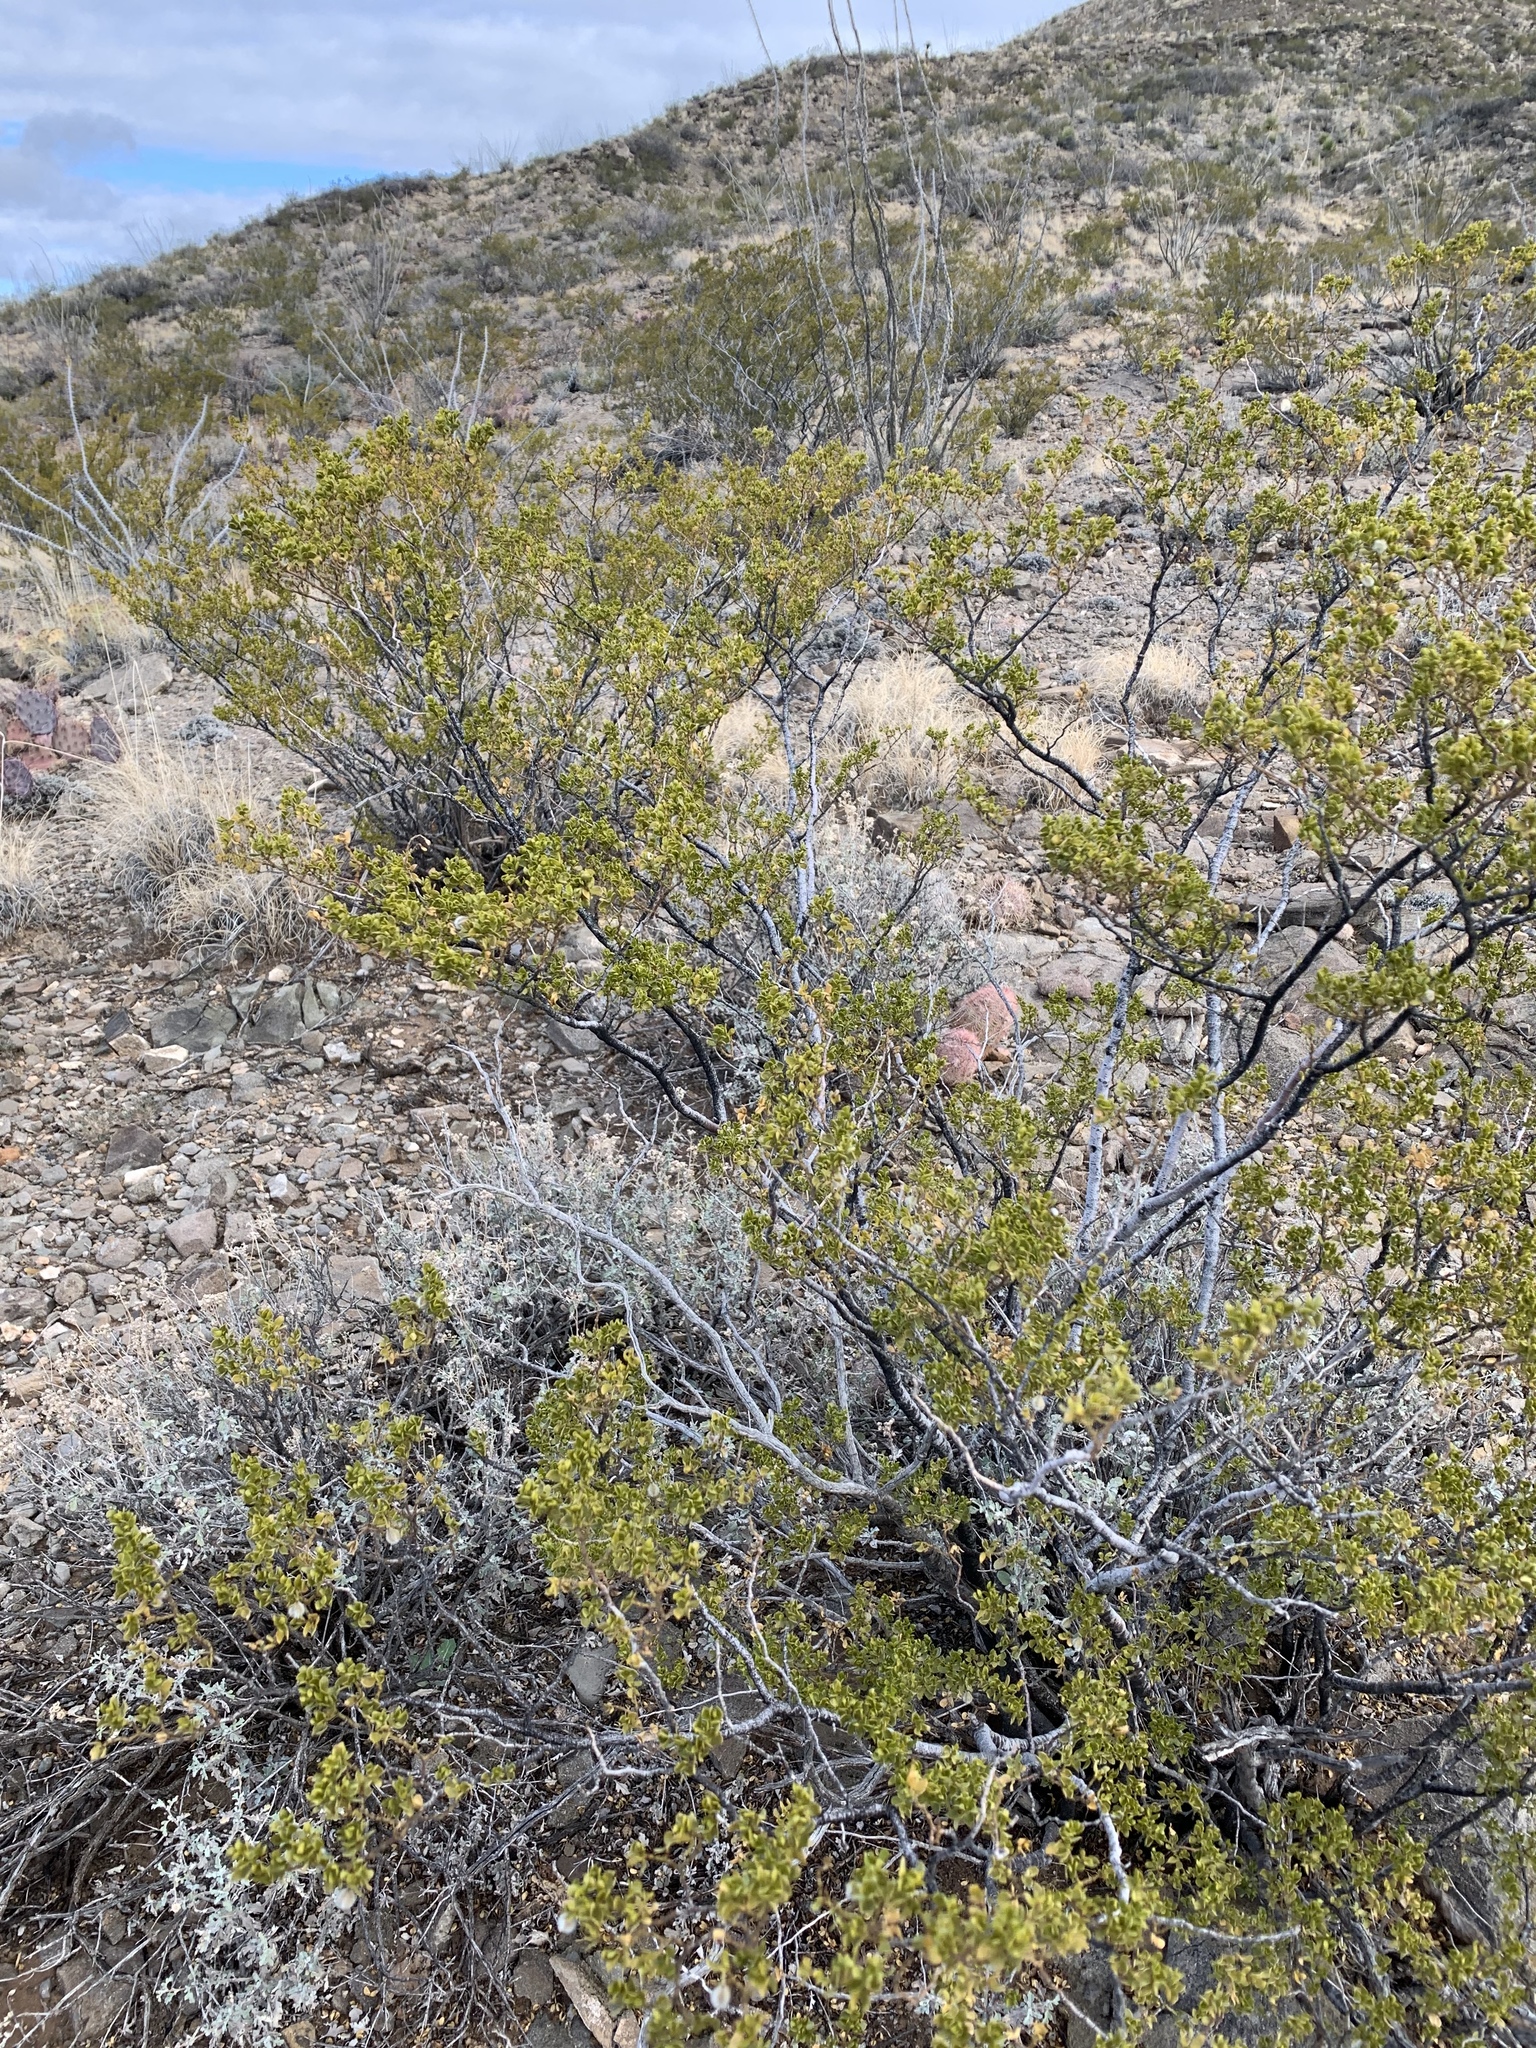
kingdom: Plantae
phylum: Tracheophyta
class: Magnoliopsida
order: Zygophyllales
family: Zygophyllaceae
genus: Larrea
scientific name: Larrea tridentata
